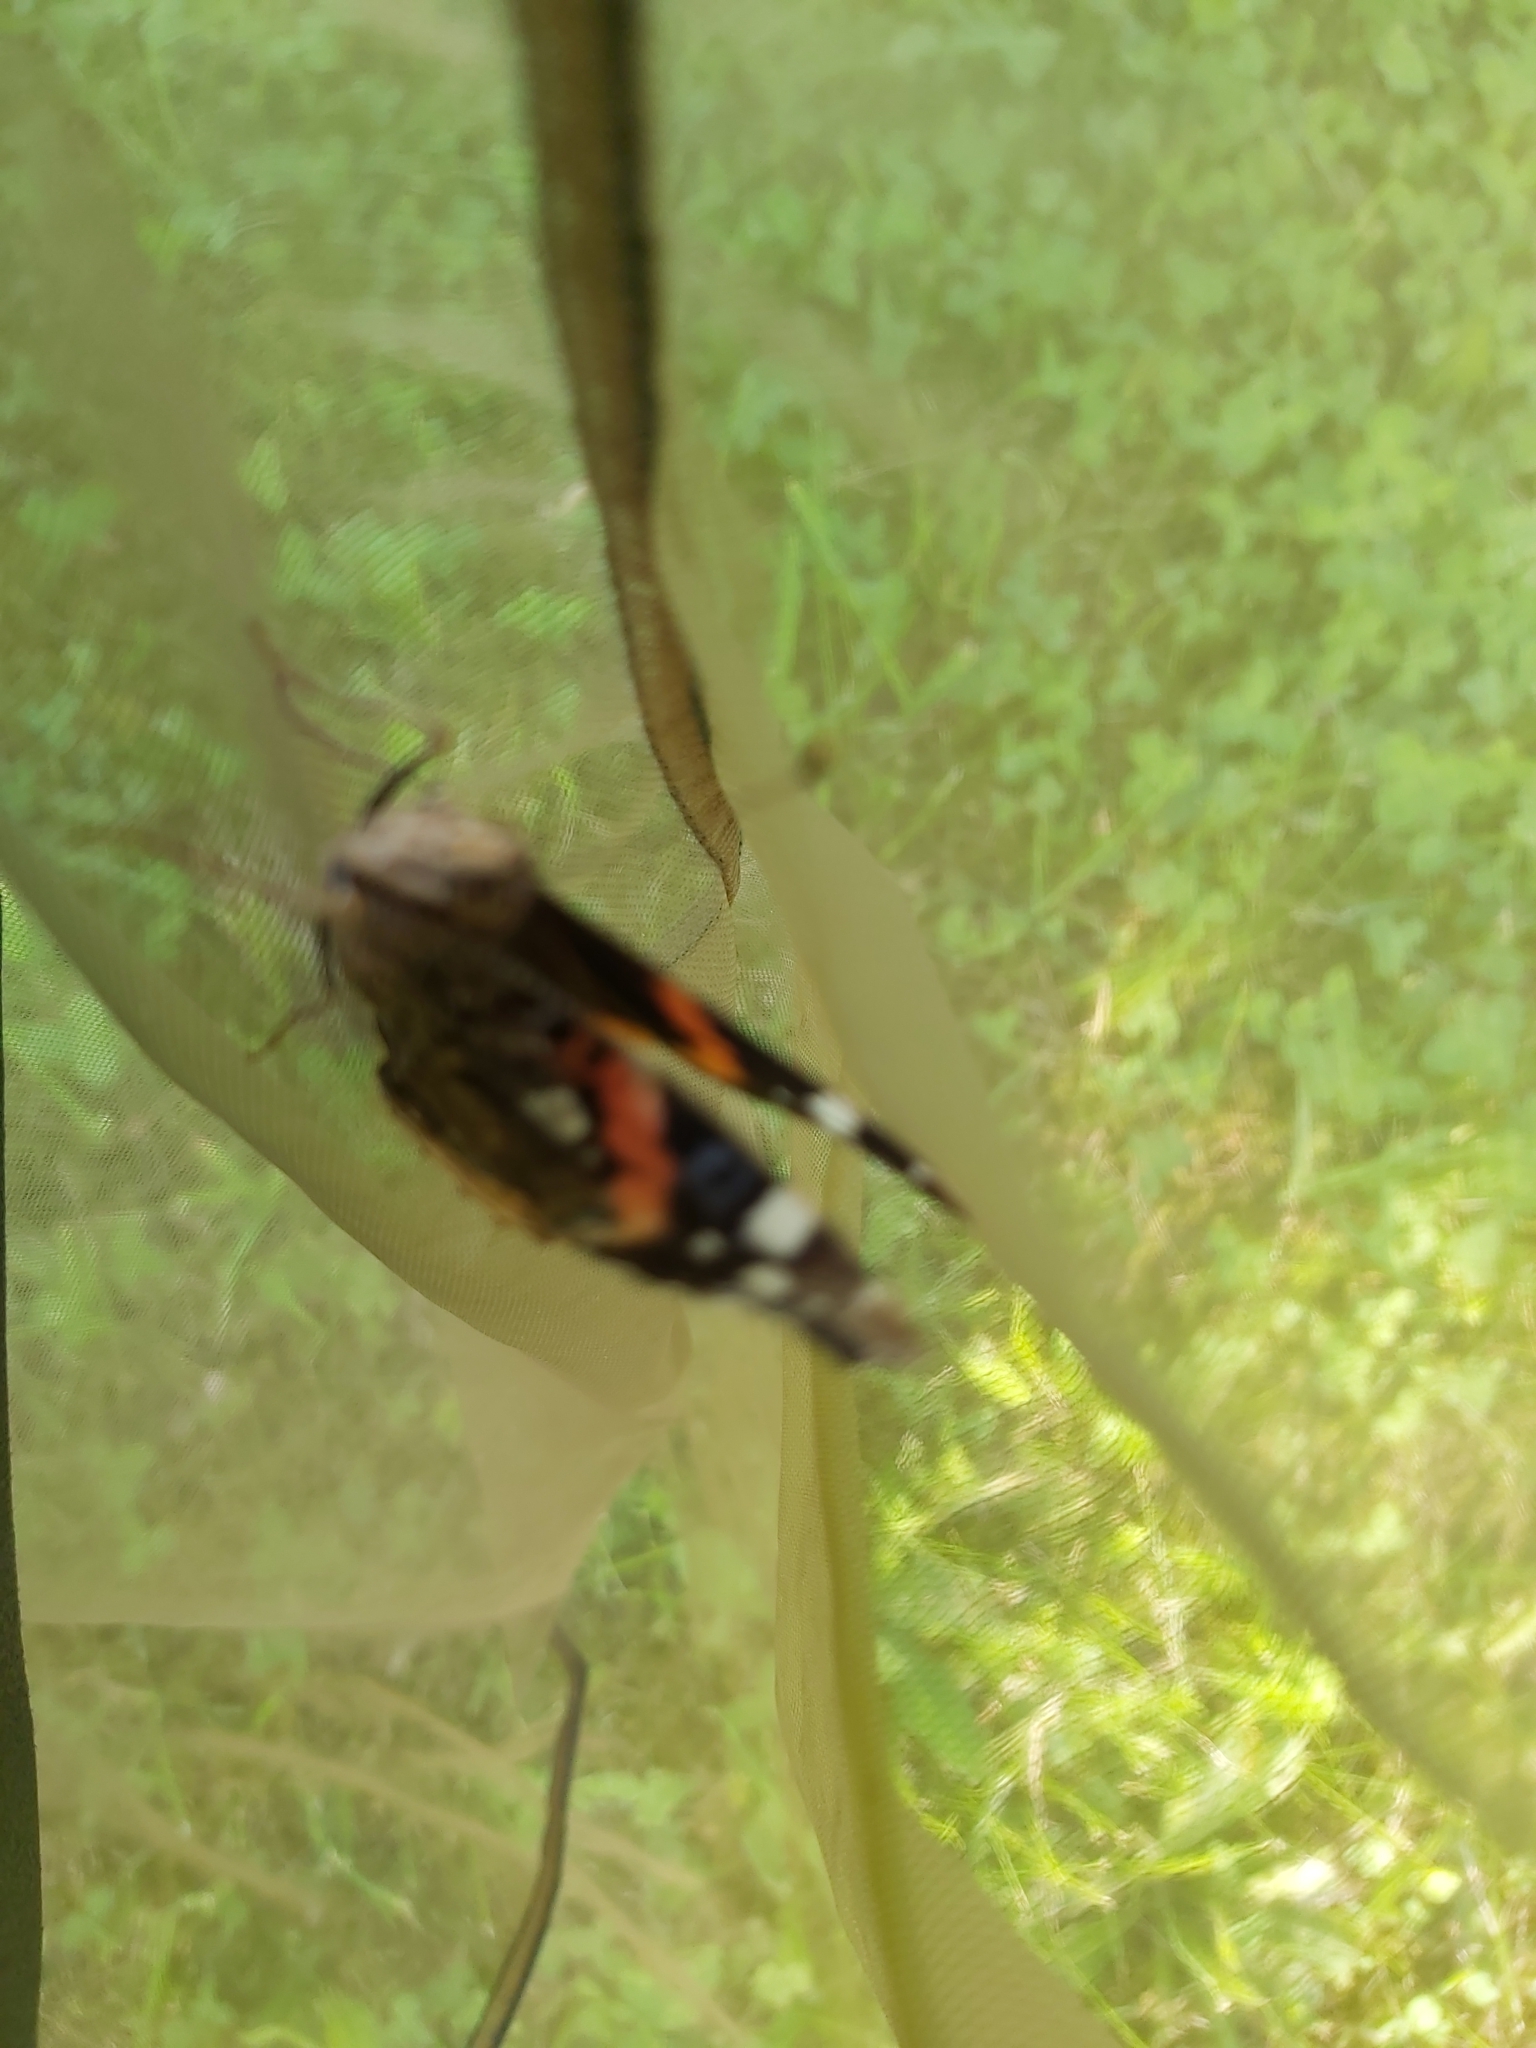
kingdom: Animalia
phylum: Arthropoda
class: Insecta
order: Lepidoptera
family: Nymphalidae
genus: Vanessa
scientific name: Vanessa atalanta
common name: Red admiral
